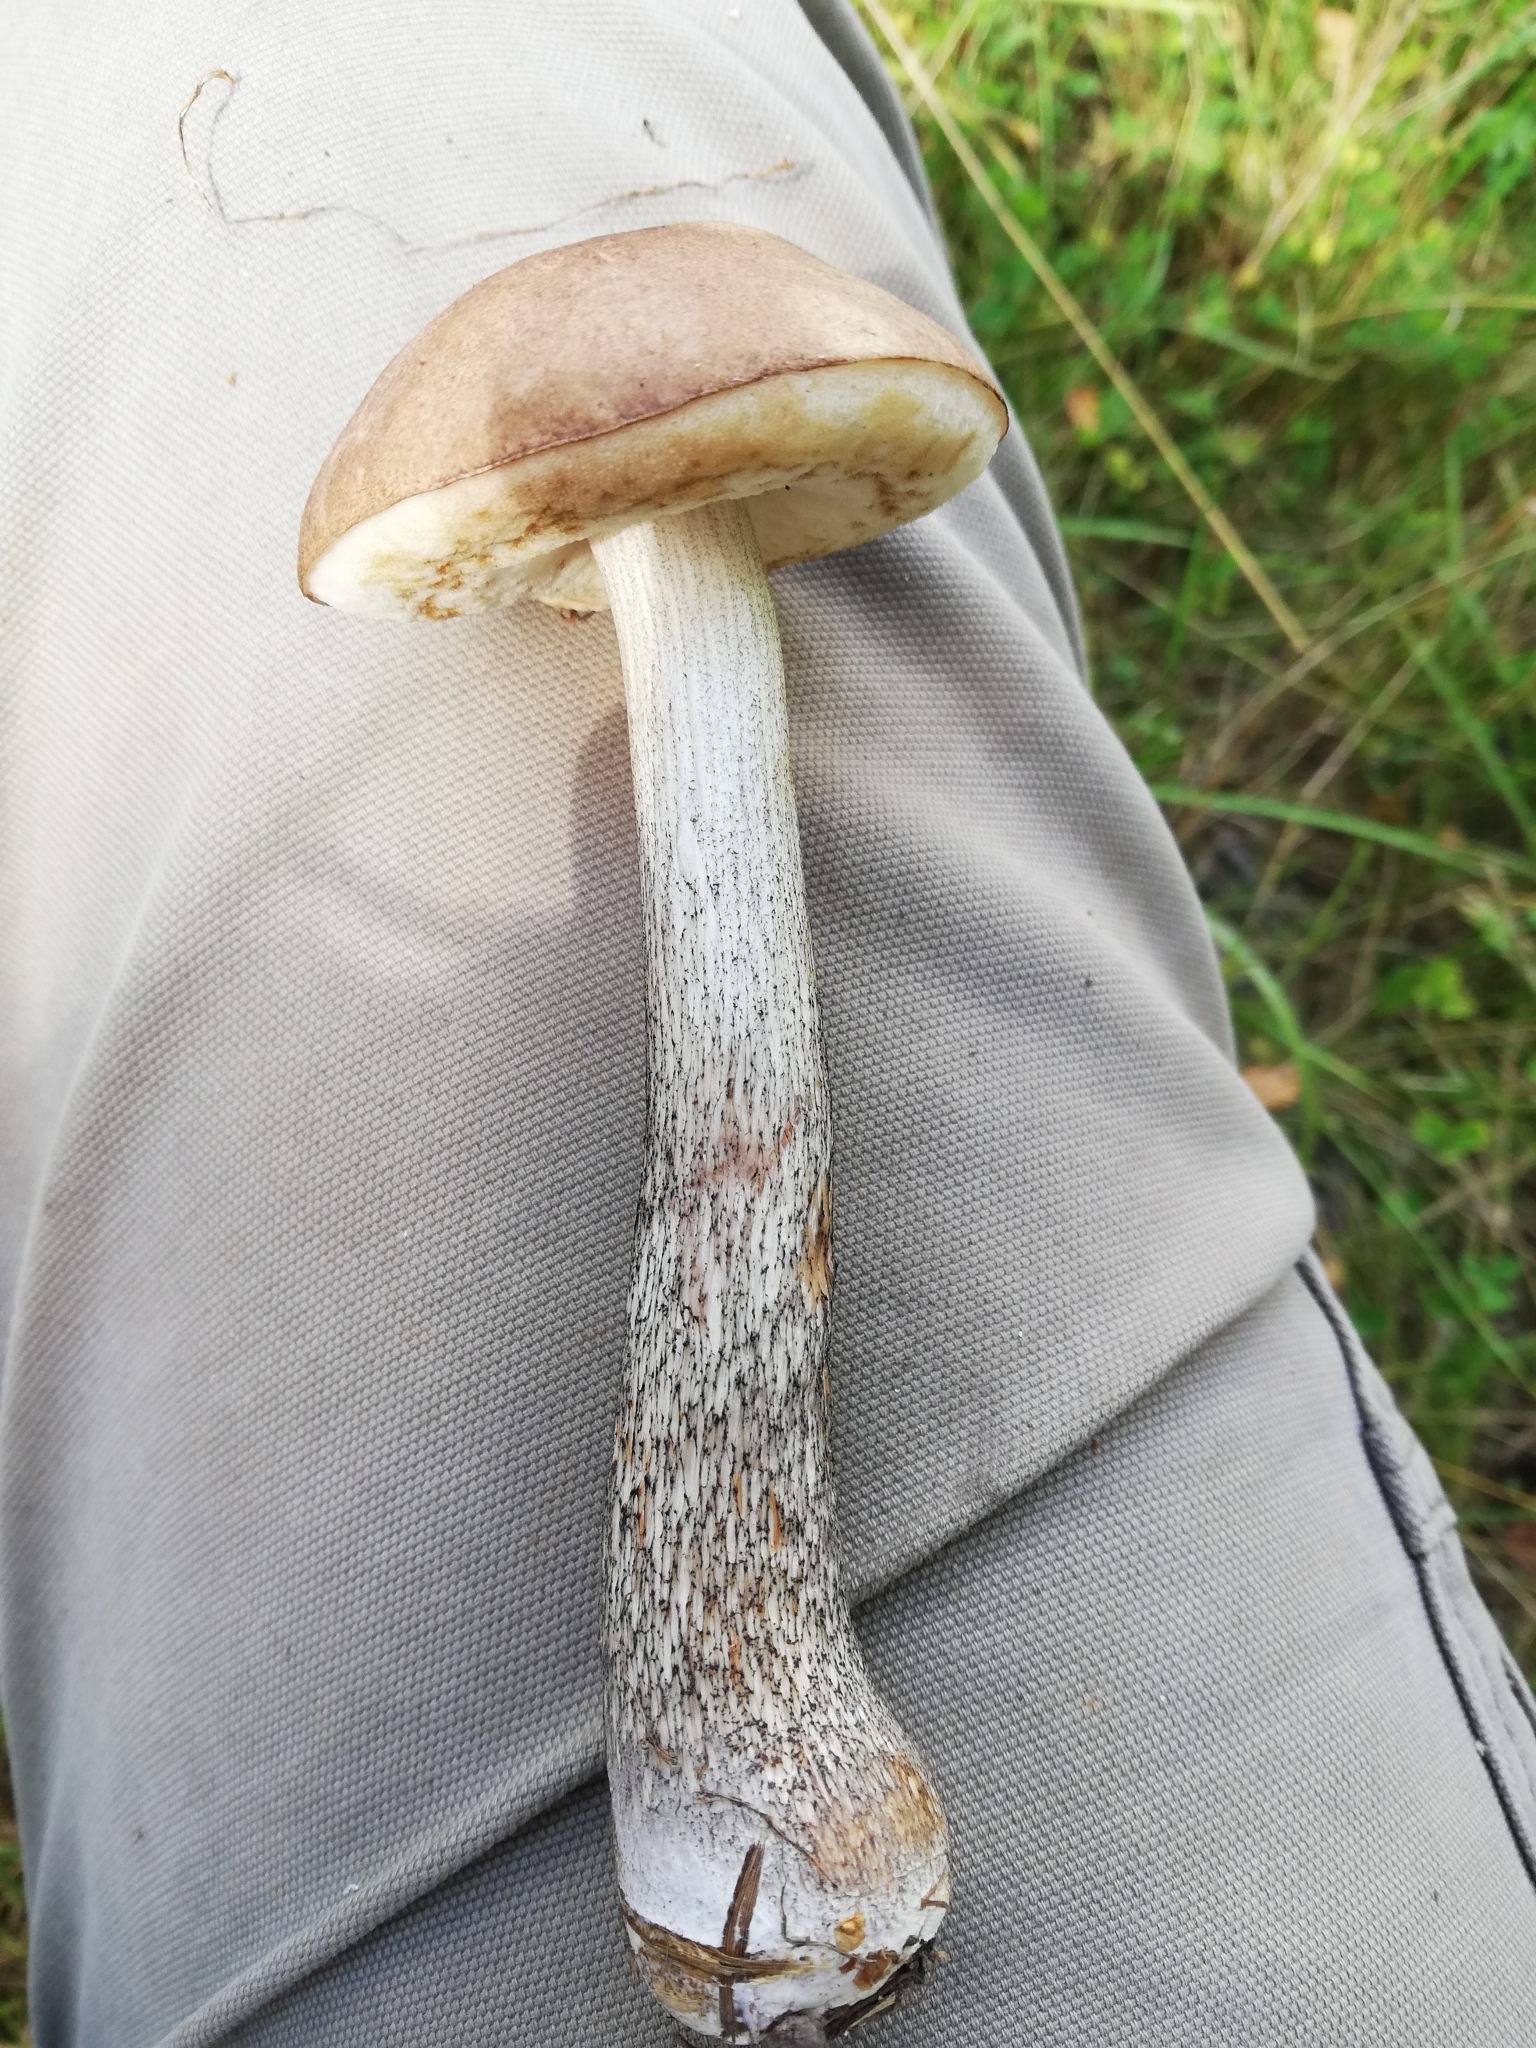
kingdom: Fungi
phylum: Basidiomycota
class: Agaricomycetes
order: Boletales
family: Boletaceae
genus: Leccinum
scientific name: Leccinum scabrum
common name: Blushing bolete
